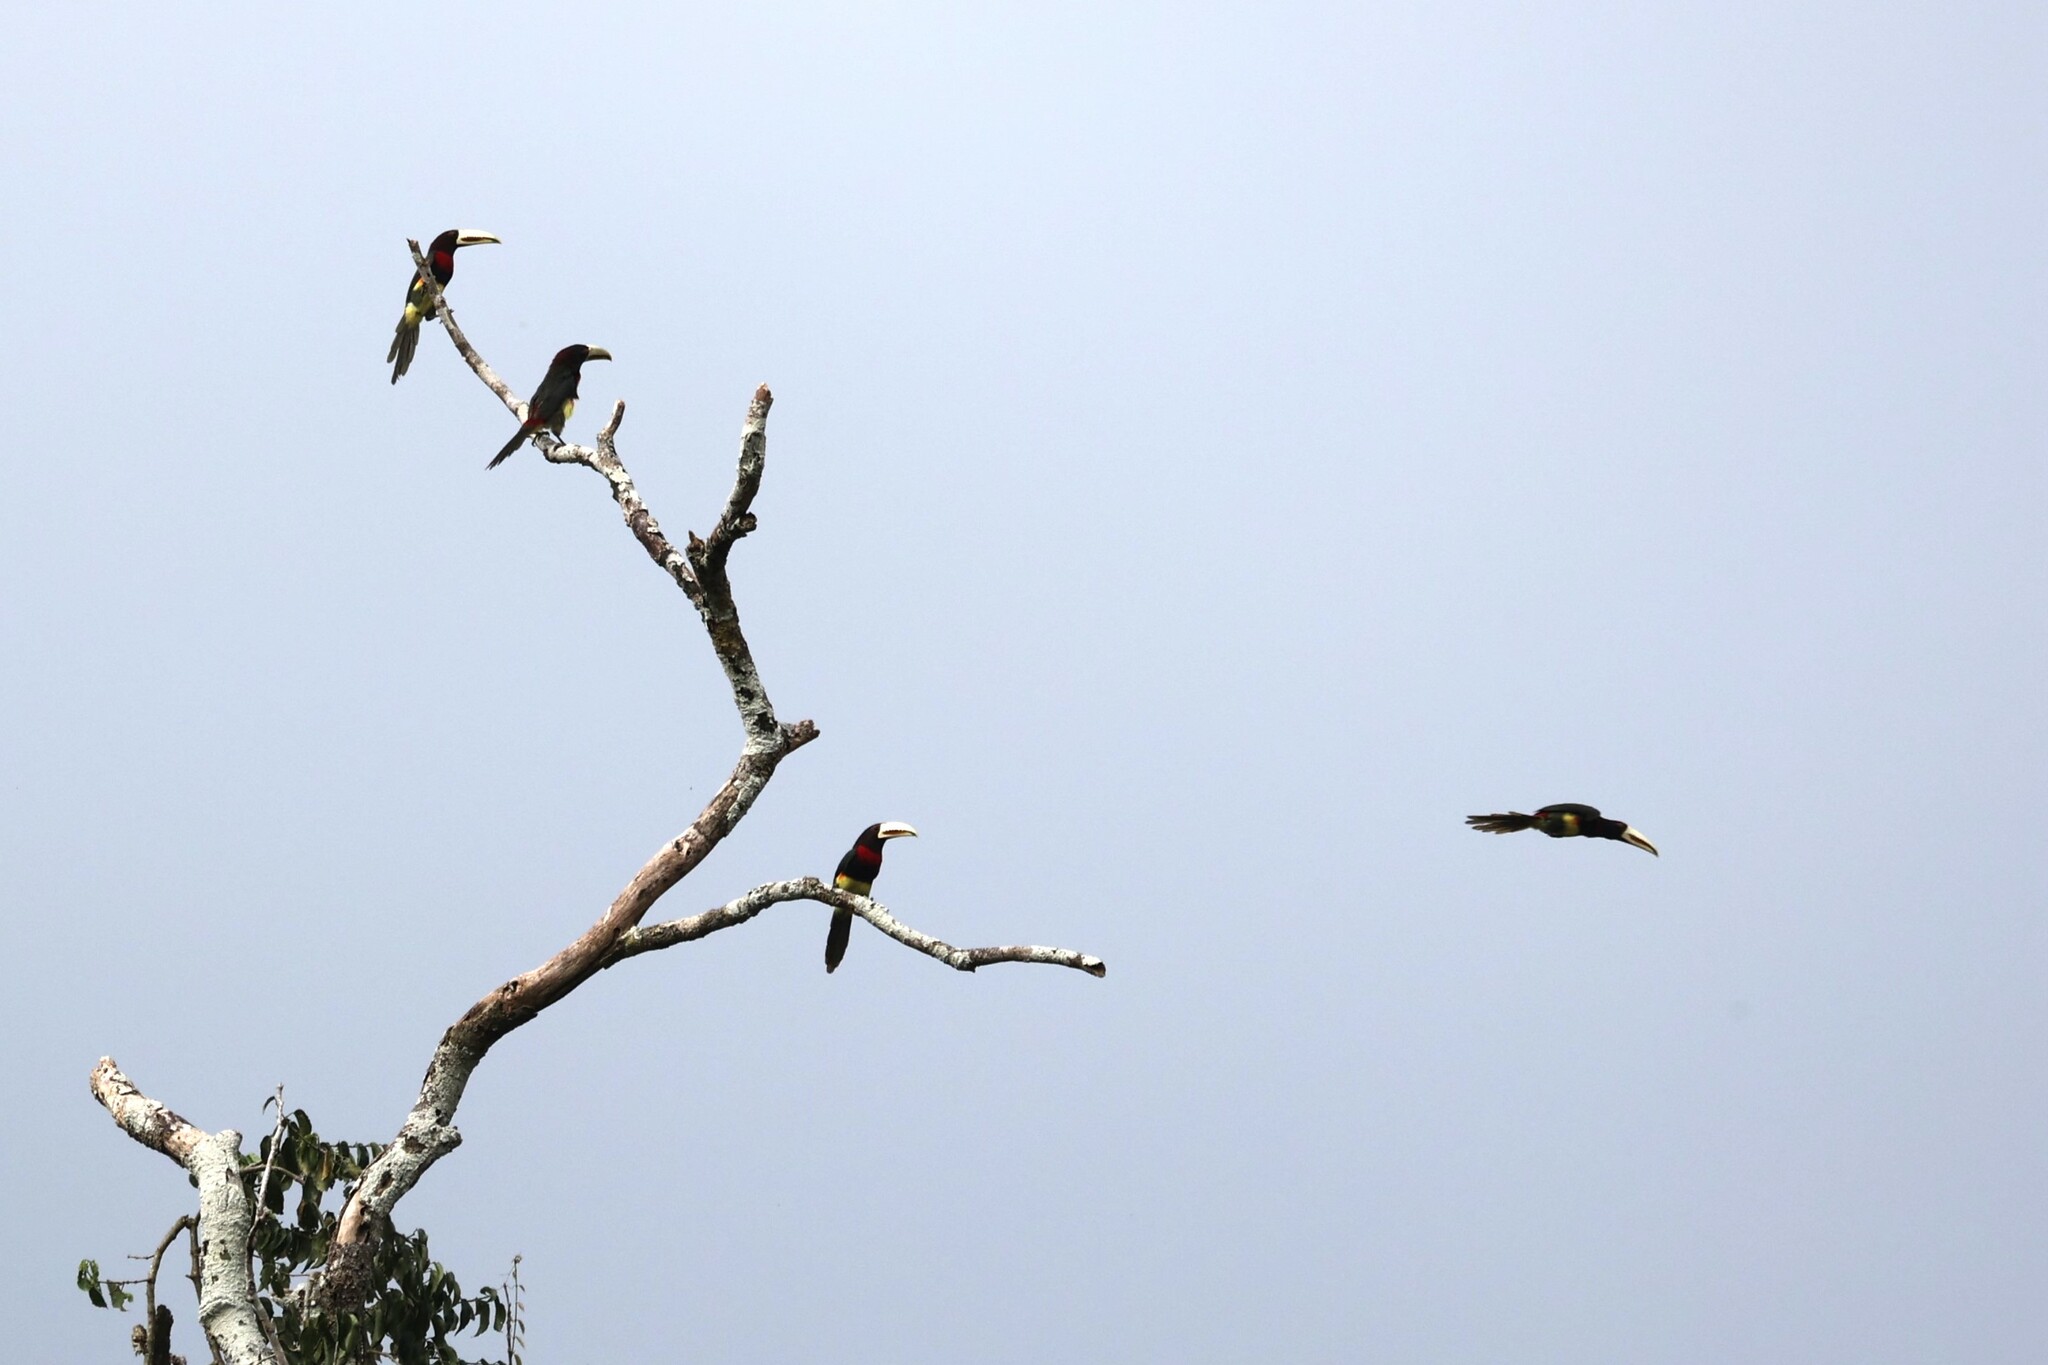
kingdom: Animalia
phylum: Chordata
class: Aves
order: Piciformes
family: Ramphastidae
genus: Pteroglossus
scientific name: Pteroglossus azara
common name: Ivory-billed aracari
